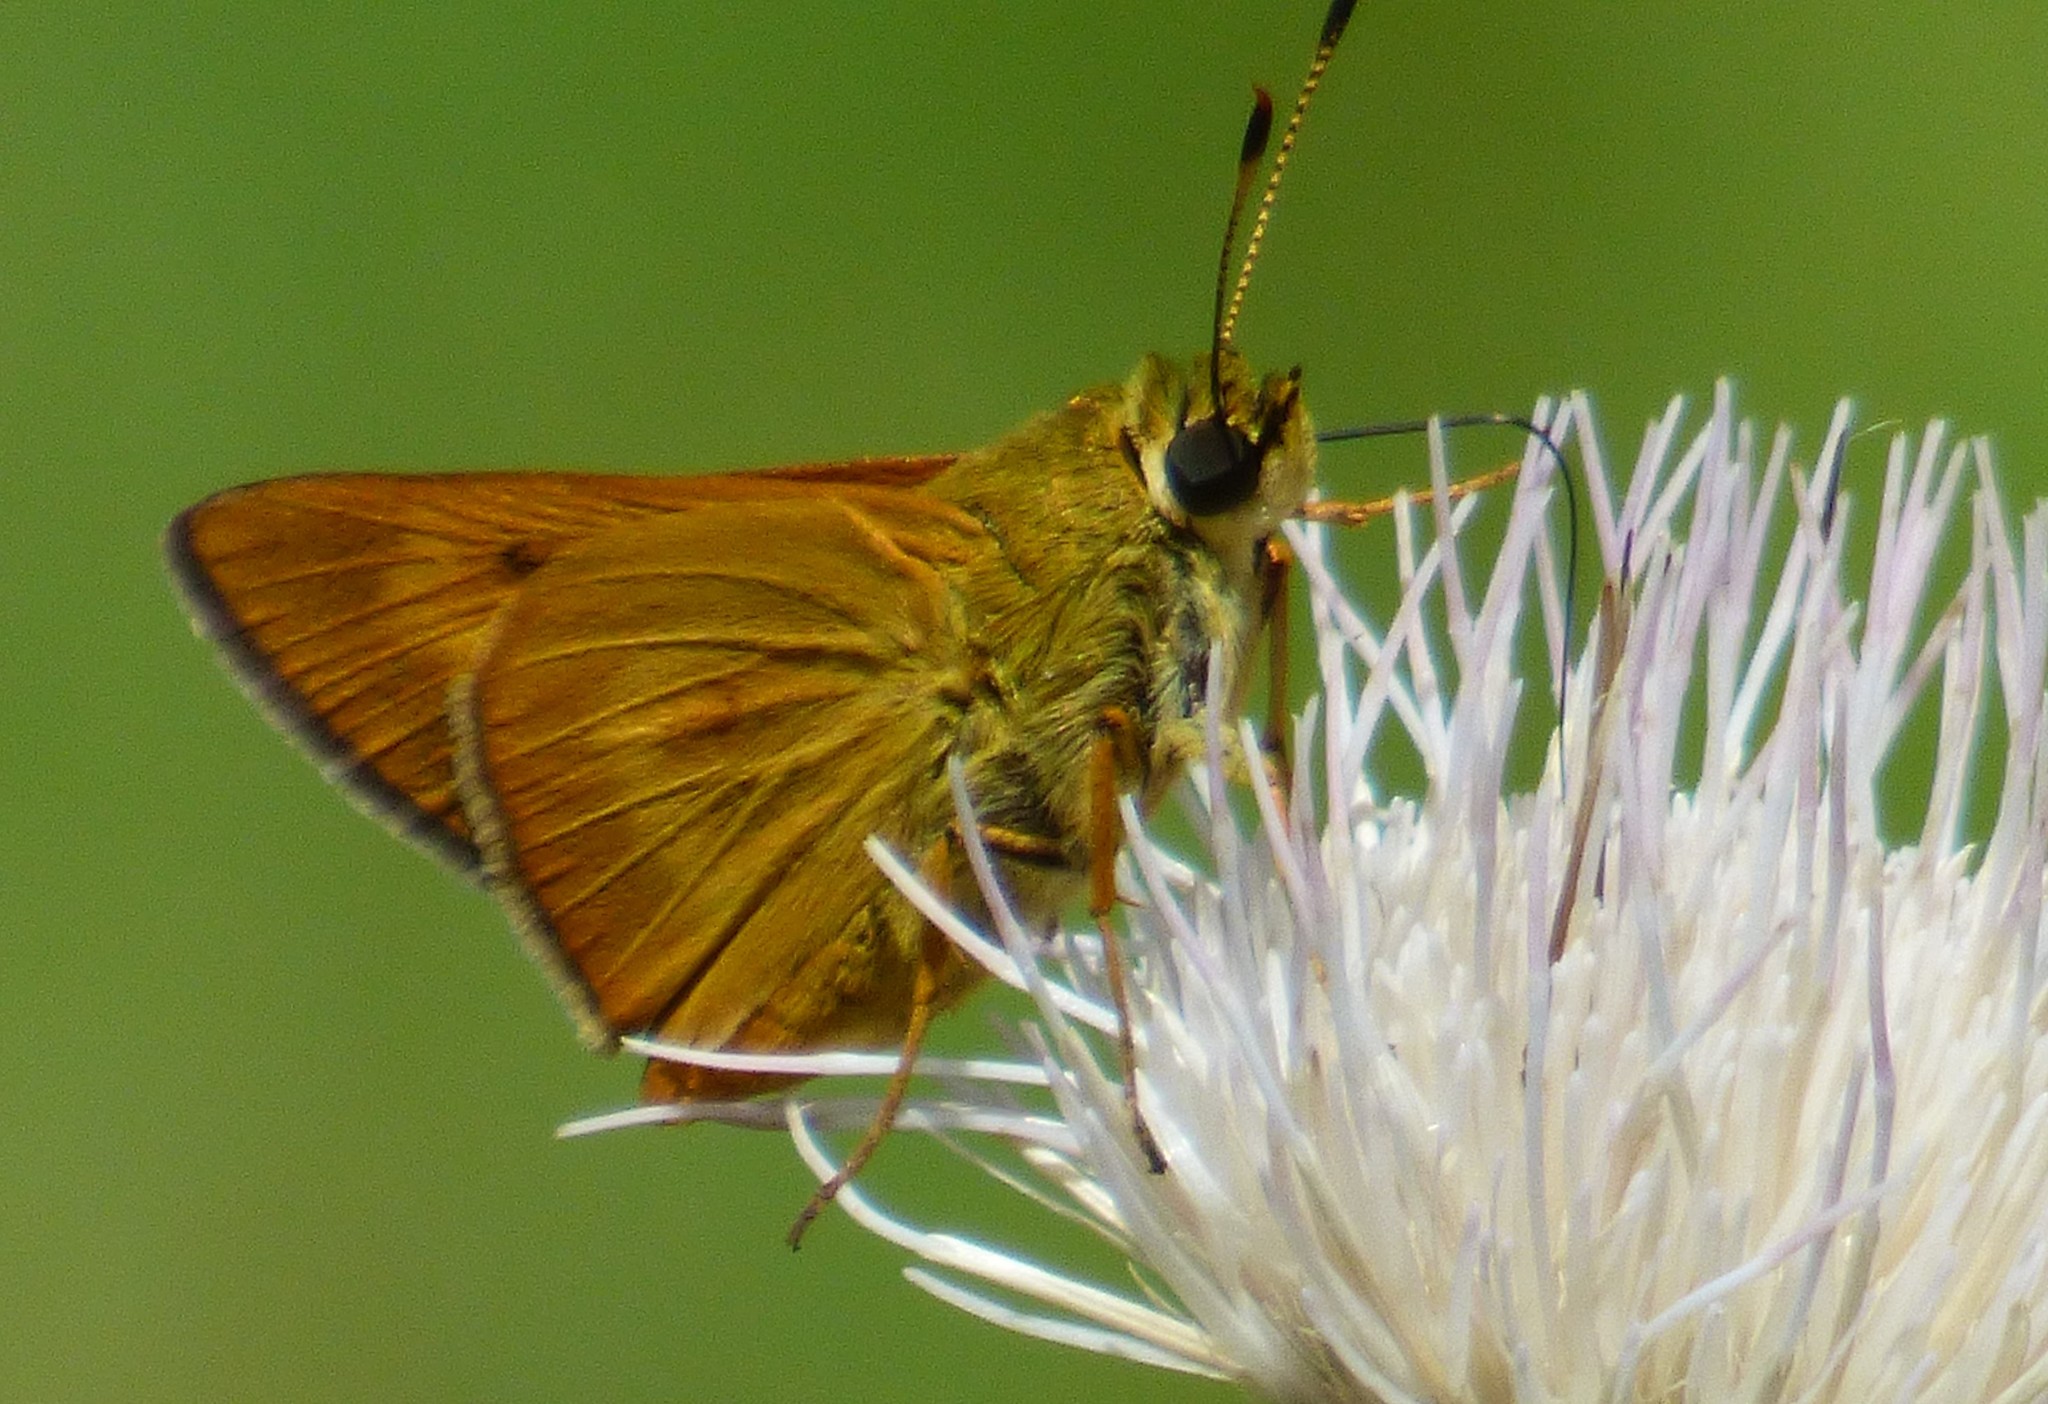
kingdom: Animalia
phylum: Arthropoda
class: Insecta
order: Lepidoptera
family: Hesperiidae
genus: Problema
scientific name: Problema byssus
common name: Byssus skipper
